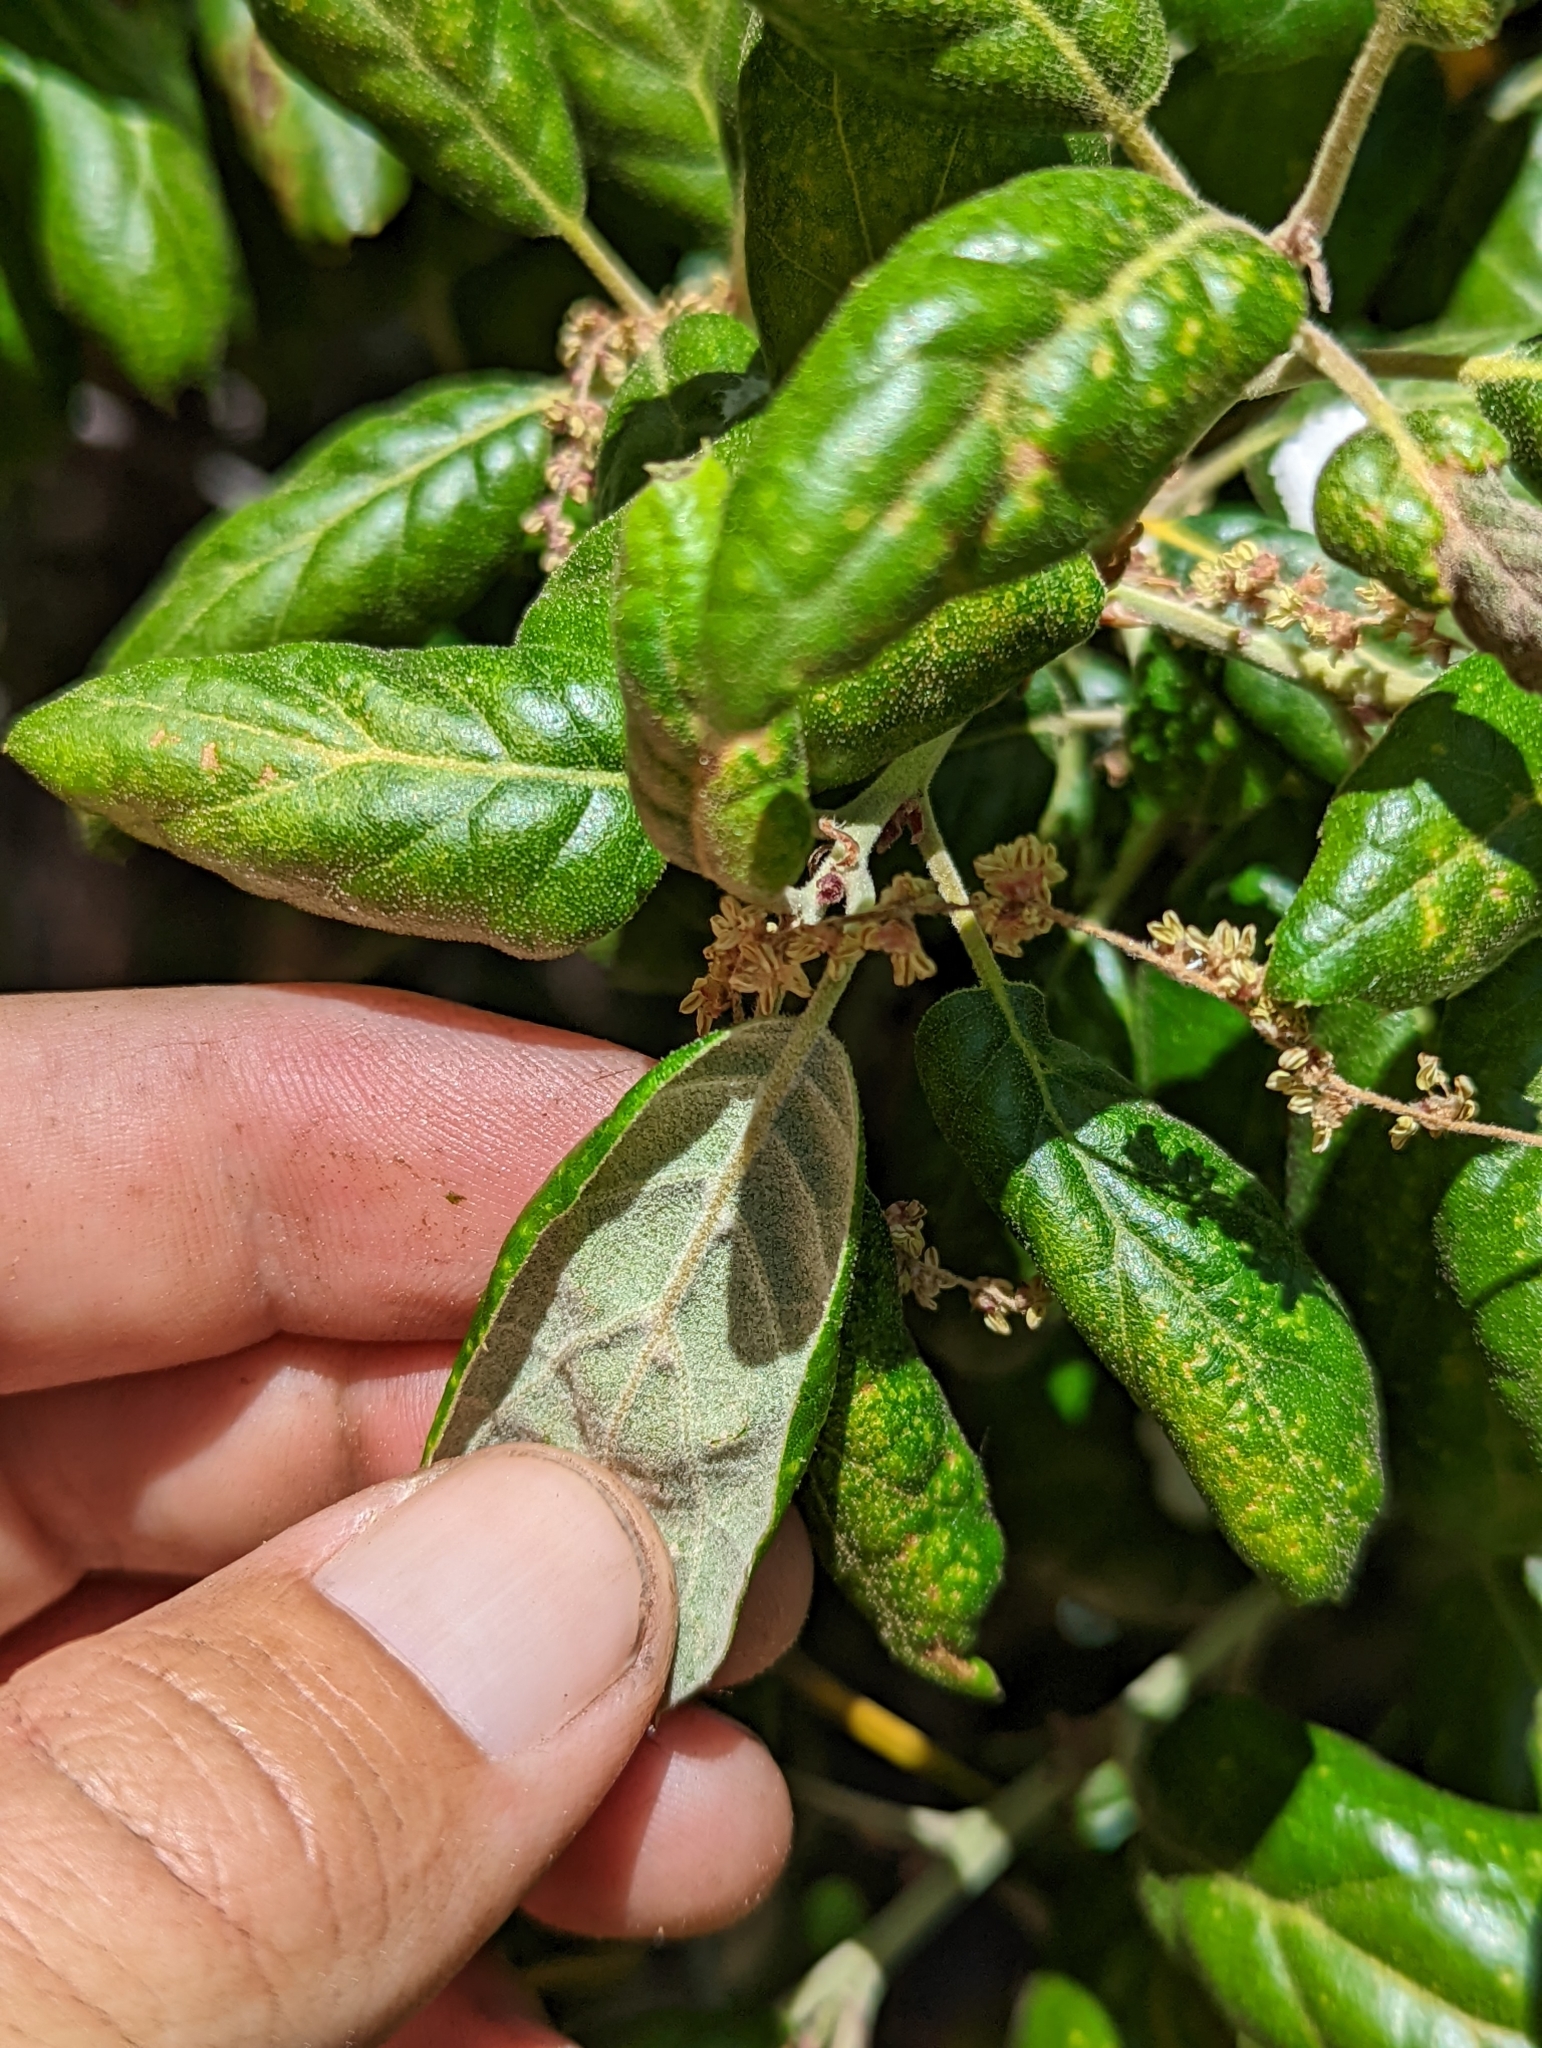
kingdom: Plantae
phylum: Tracheophyta
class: Magnoliopsida
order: Fagales
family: Fagaceae
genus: Quercus
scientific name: Quercus agrifolia
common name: California live oak
